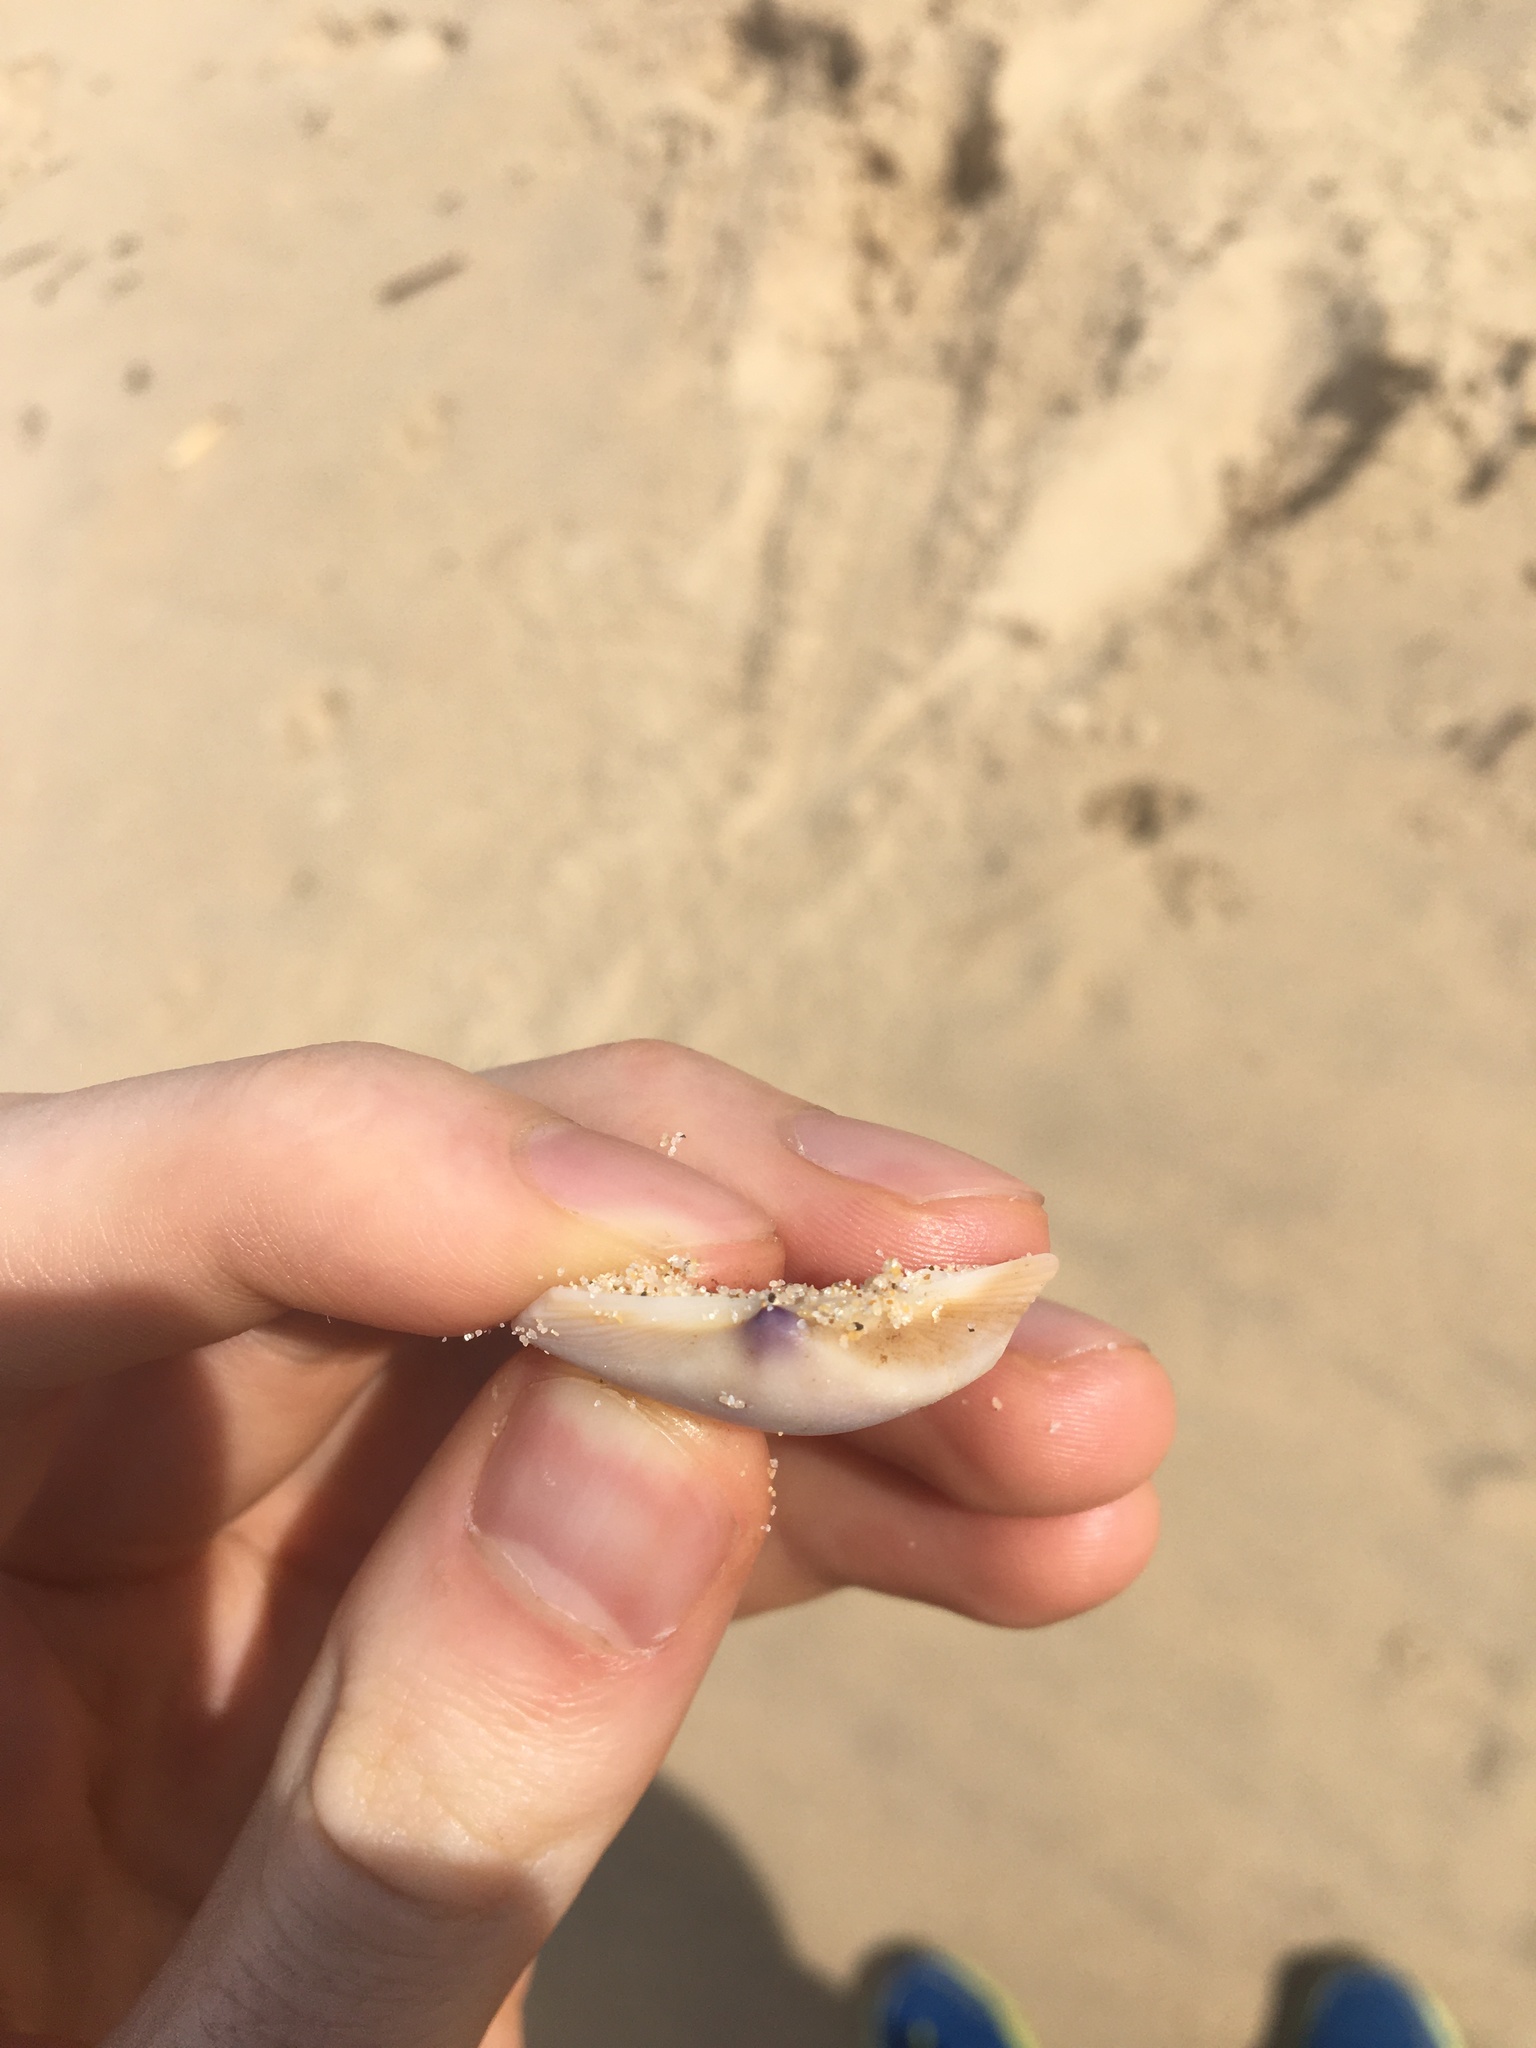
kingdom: Animalia
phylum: Mollusca
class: Bivalvia
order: Venerida
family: Mactridae
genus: Austromactra
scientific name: Austromactra contraria
